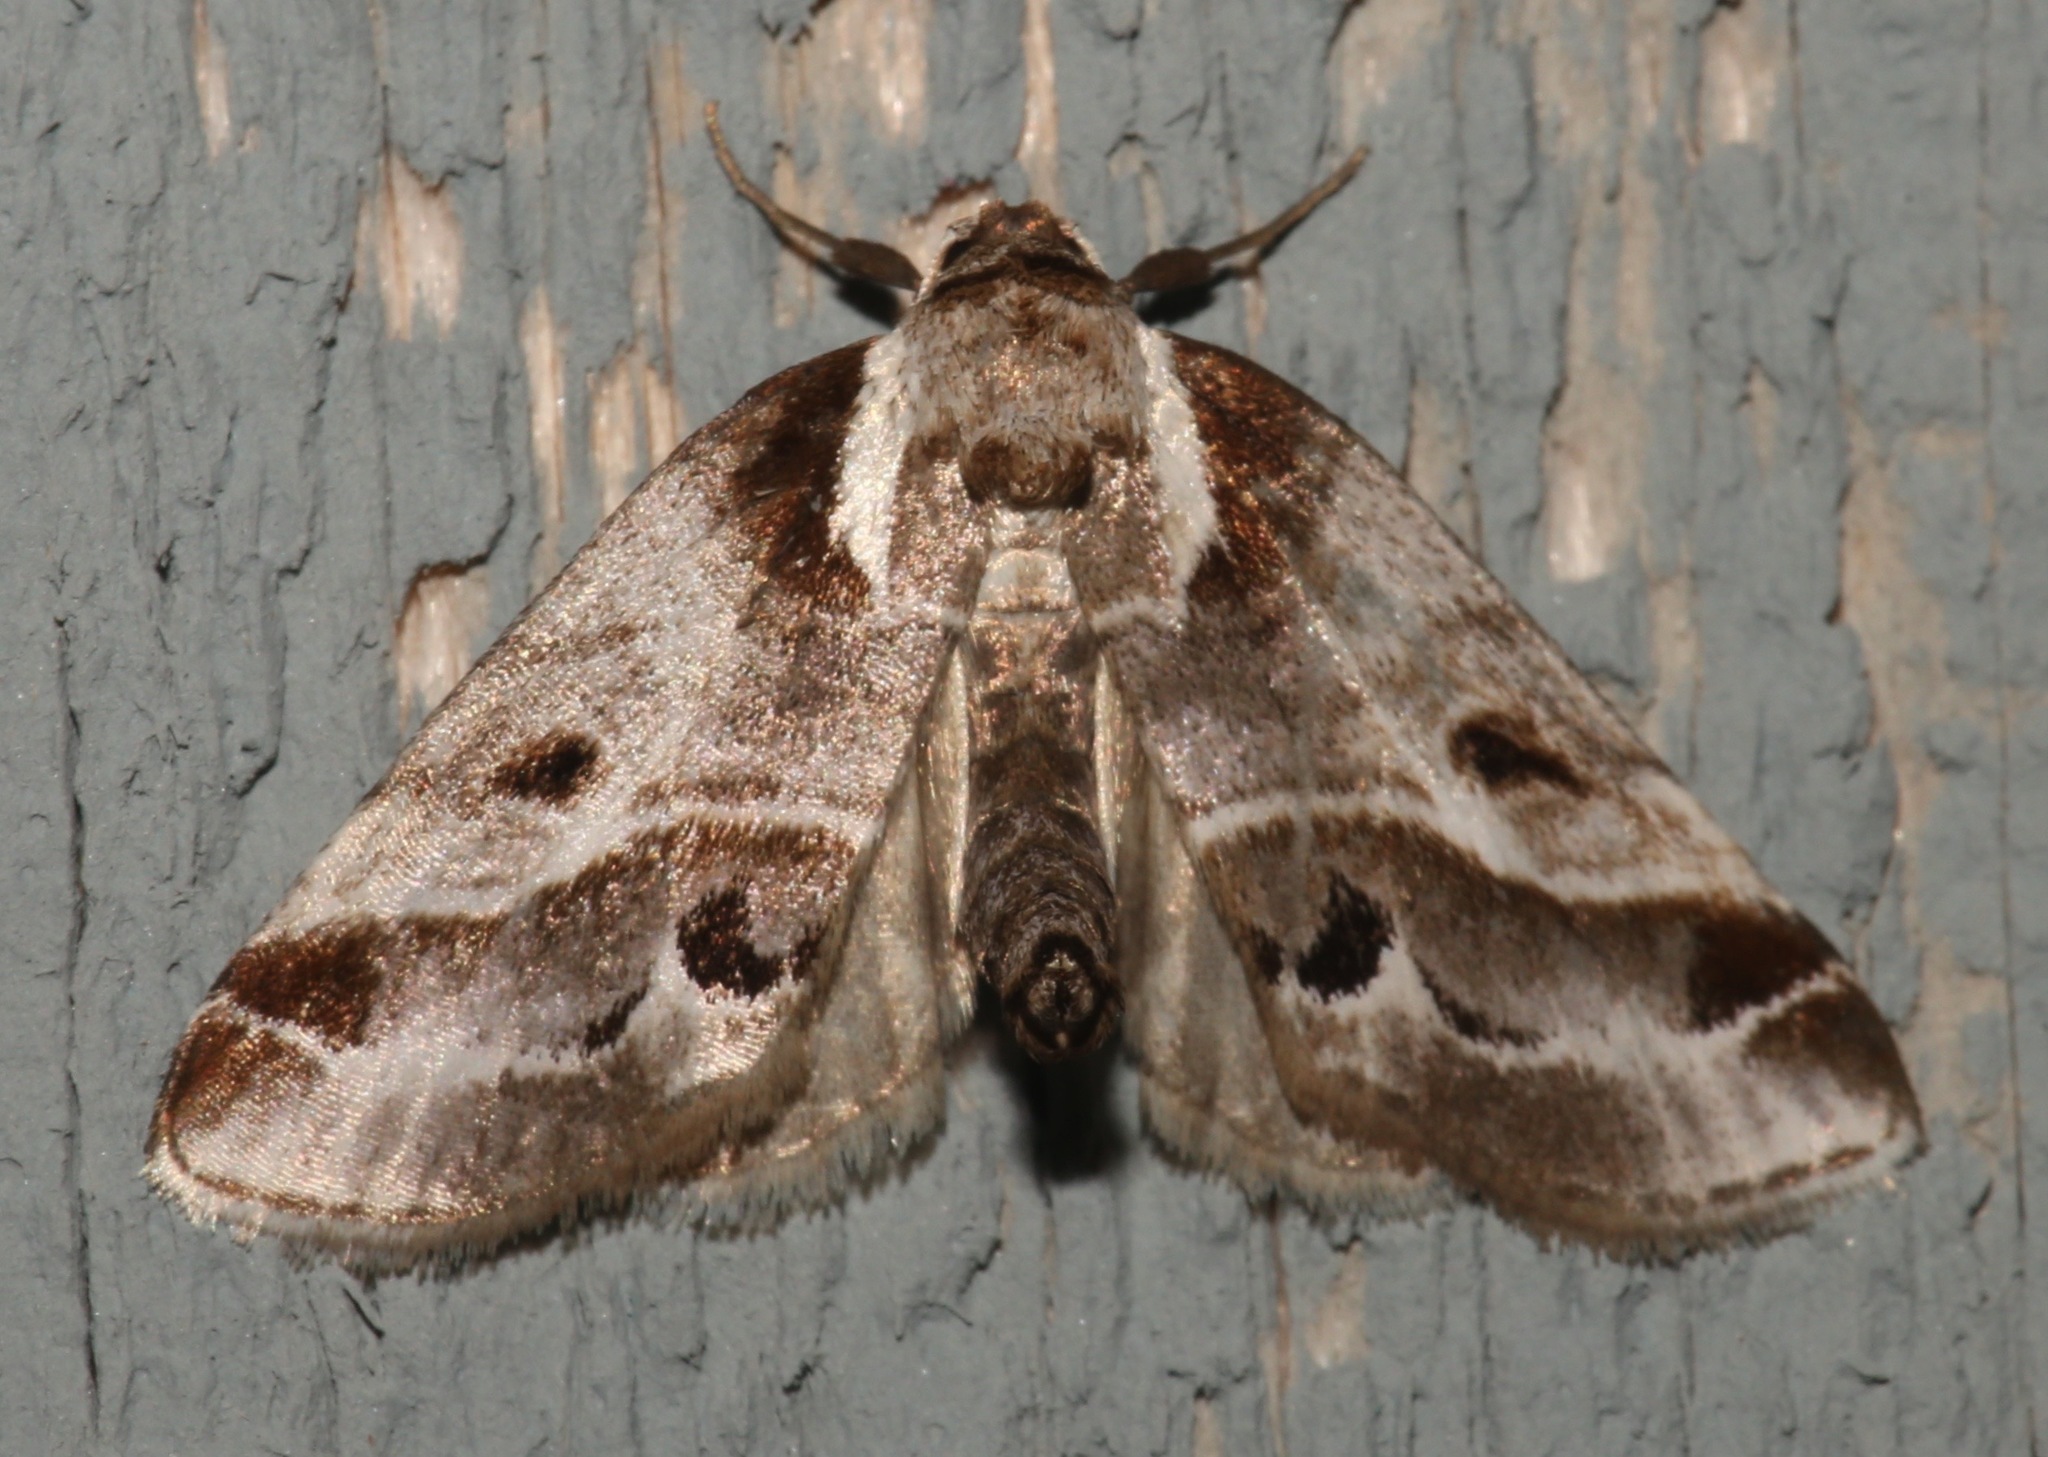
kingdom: Animalia
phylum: Arthropoda
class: Insecta
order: Lepidoptera
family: Nolidae
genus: Baileya
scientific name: Baileya doubledayi
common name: Doubleday's baileya moth
